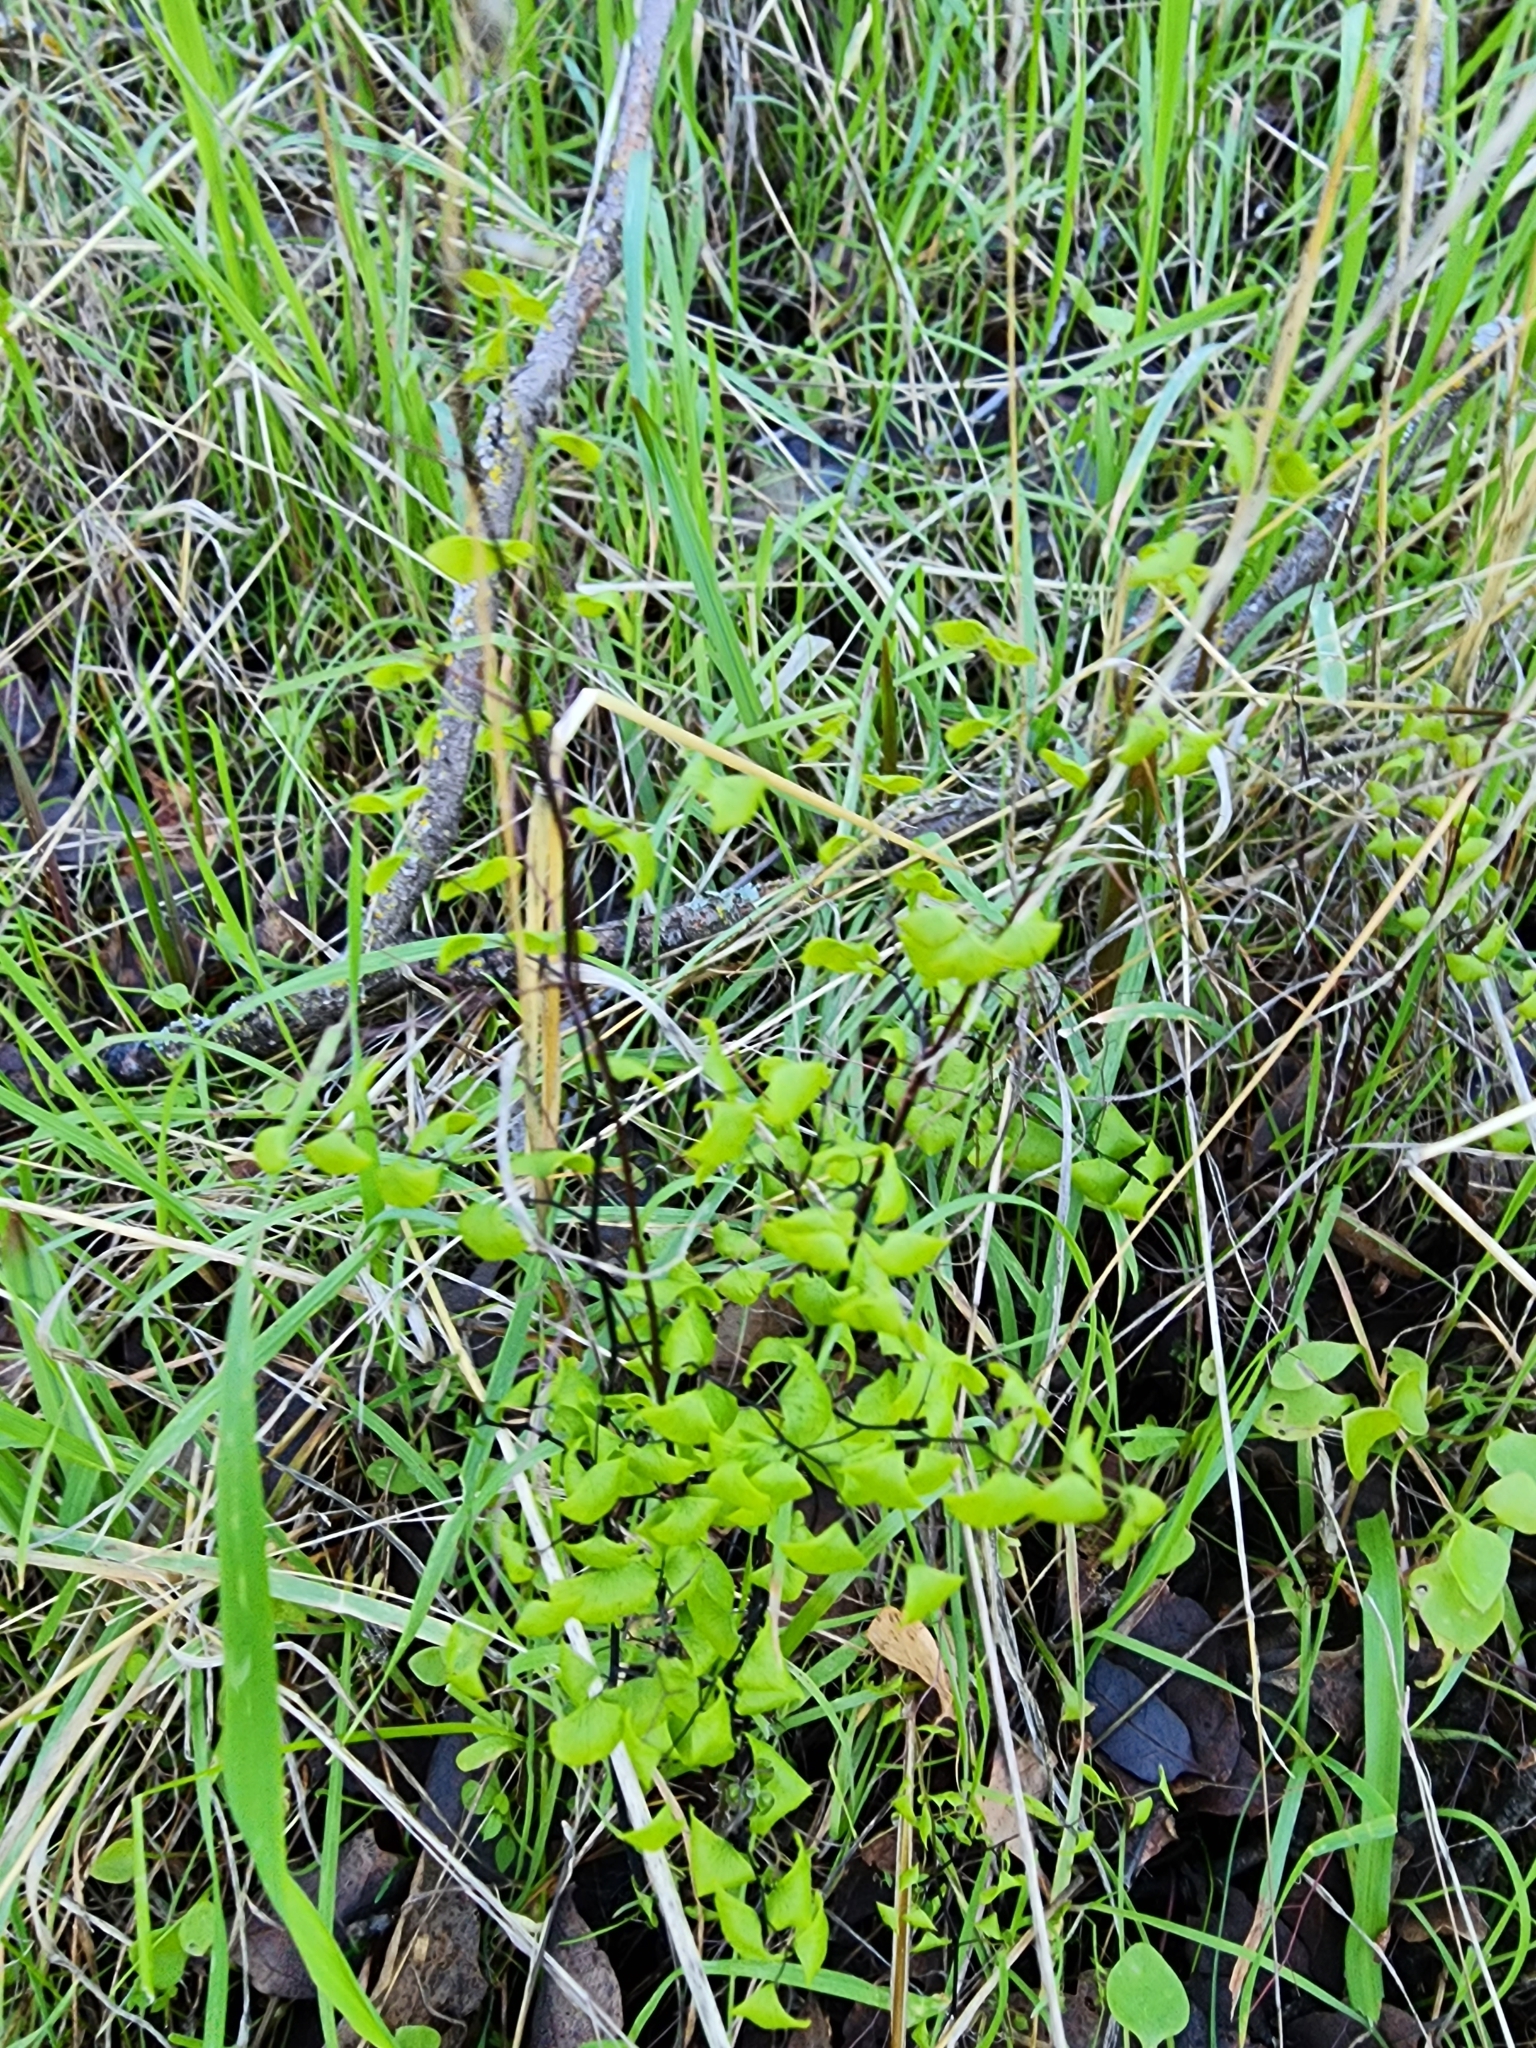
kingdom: Plantae
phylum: Tracheophyta
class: Polypodiopsida
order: Polypodiales
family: Pteridaceae
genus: Adiantum
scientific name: Adiantum jordanii
